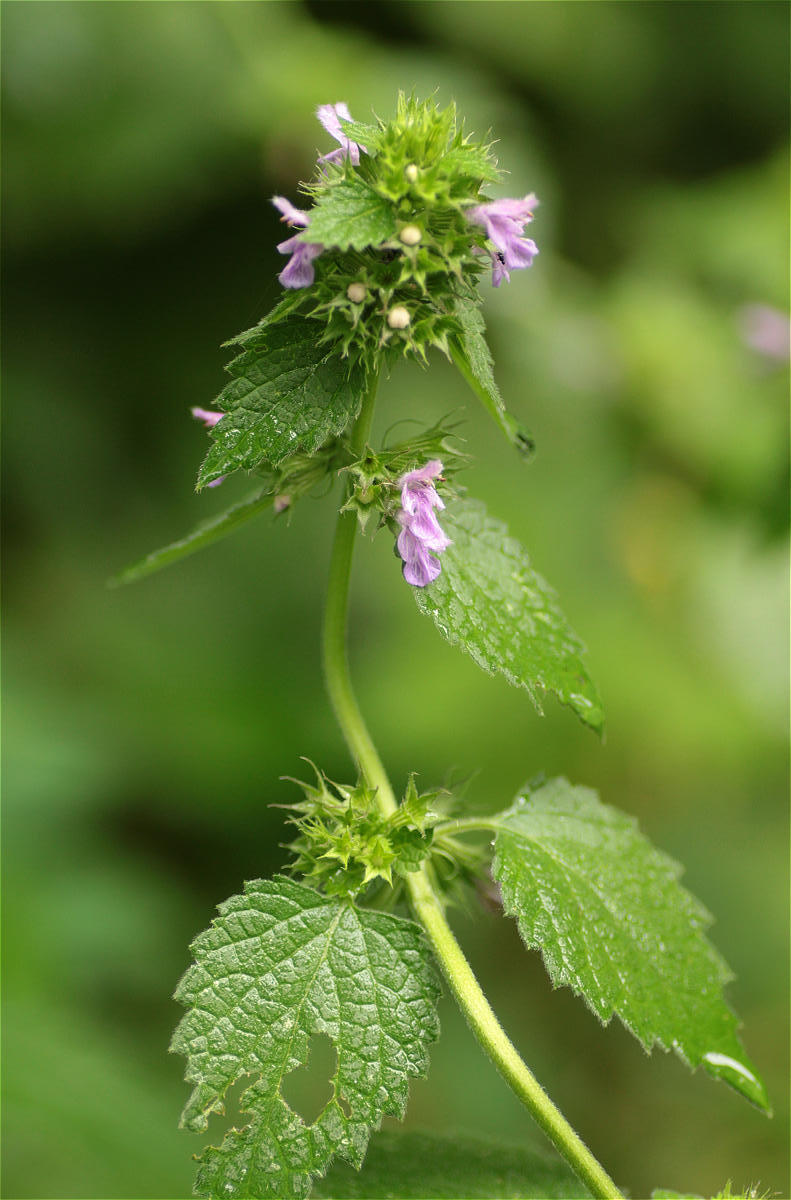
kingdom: Plantae
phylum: Tracheophyta
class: Magnoliopsida
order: Lamiales
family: Lamiaceae
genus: Ballota
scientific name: Ballota nigra
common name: Black horehound
